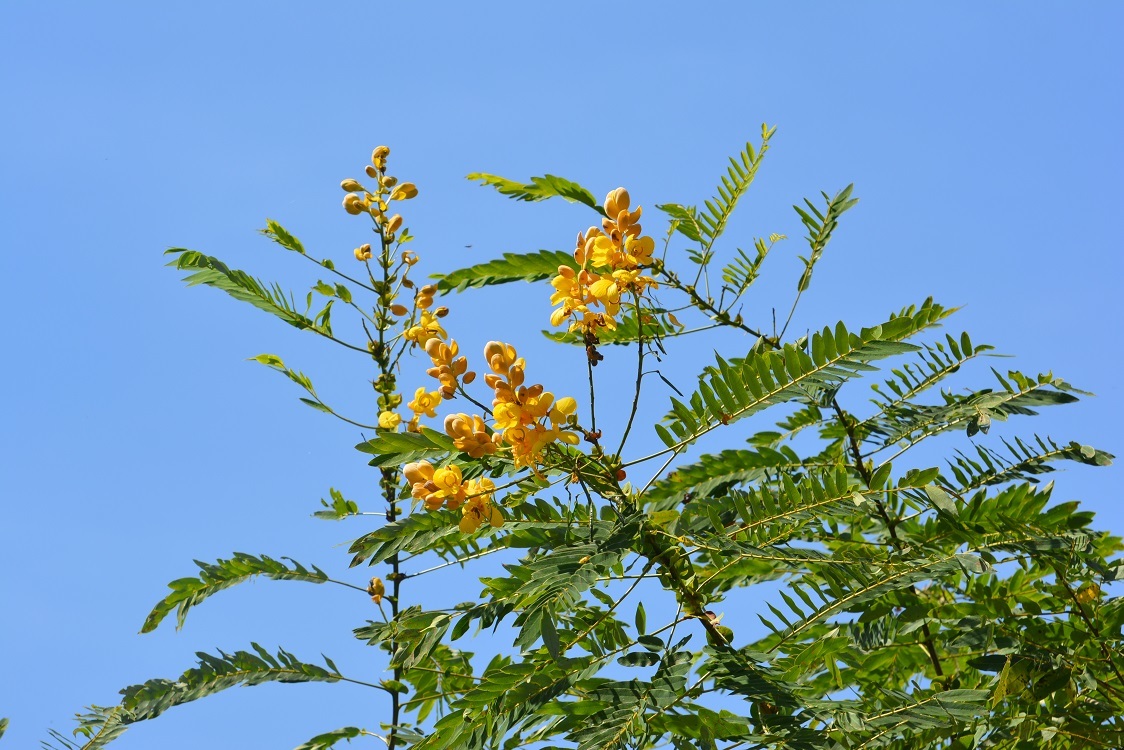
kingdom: Plantae
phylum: Tracheophyta
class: Magnoliopsida
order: Fabales
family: Fabaceae
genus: Senna
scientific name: Senna spectabilis
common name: Casia amarilla
